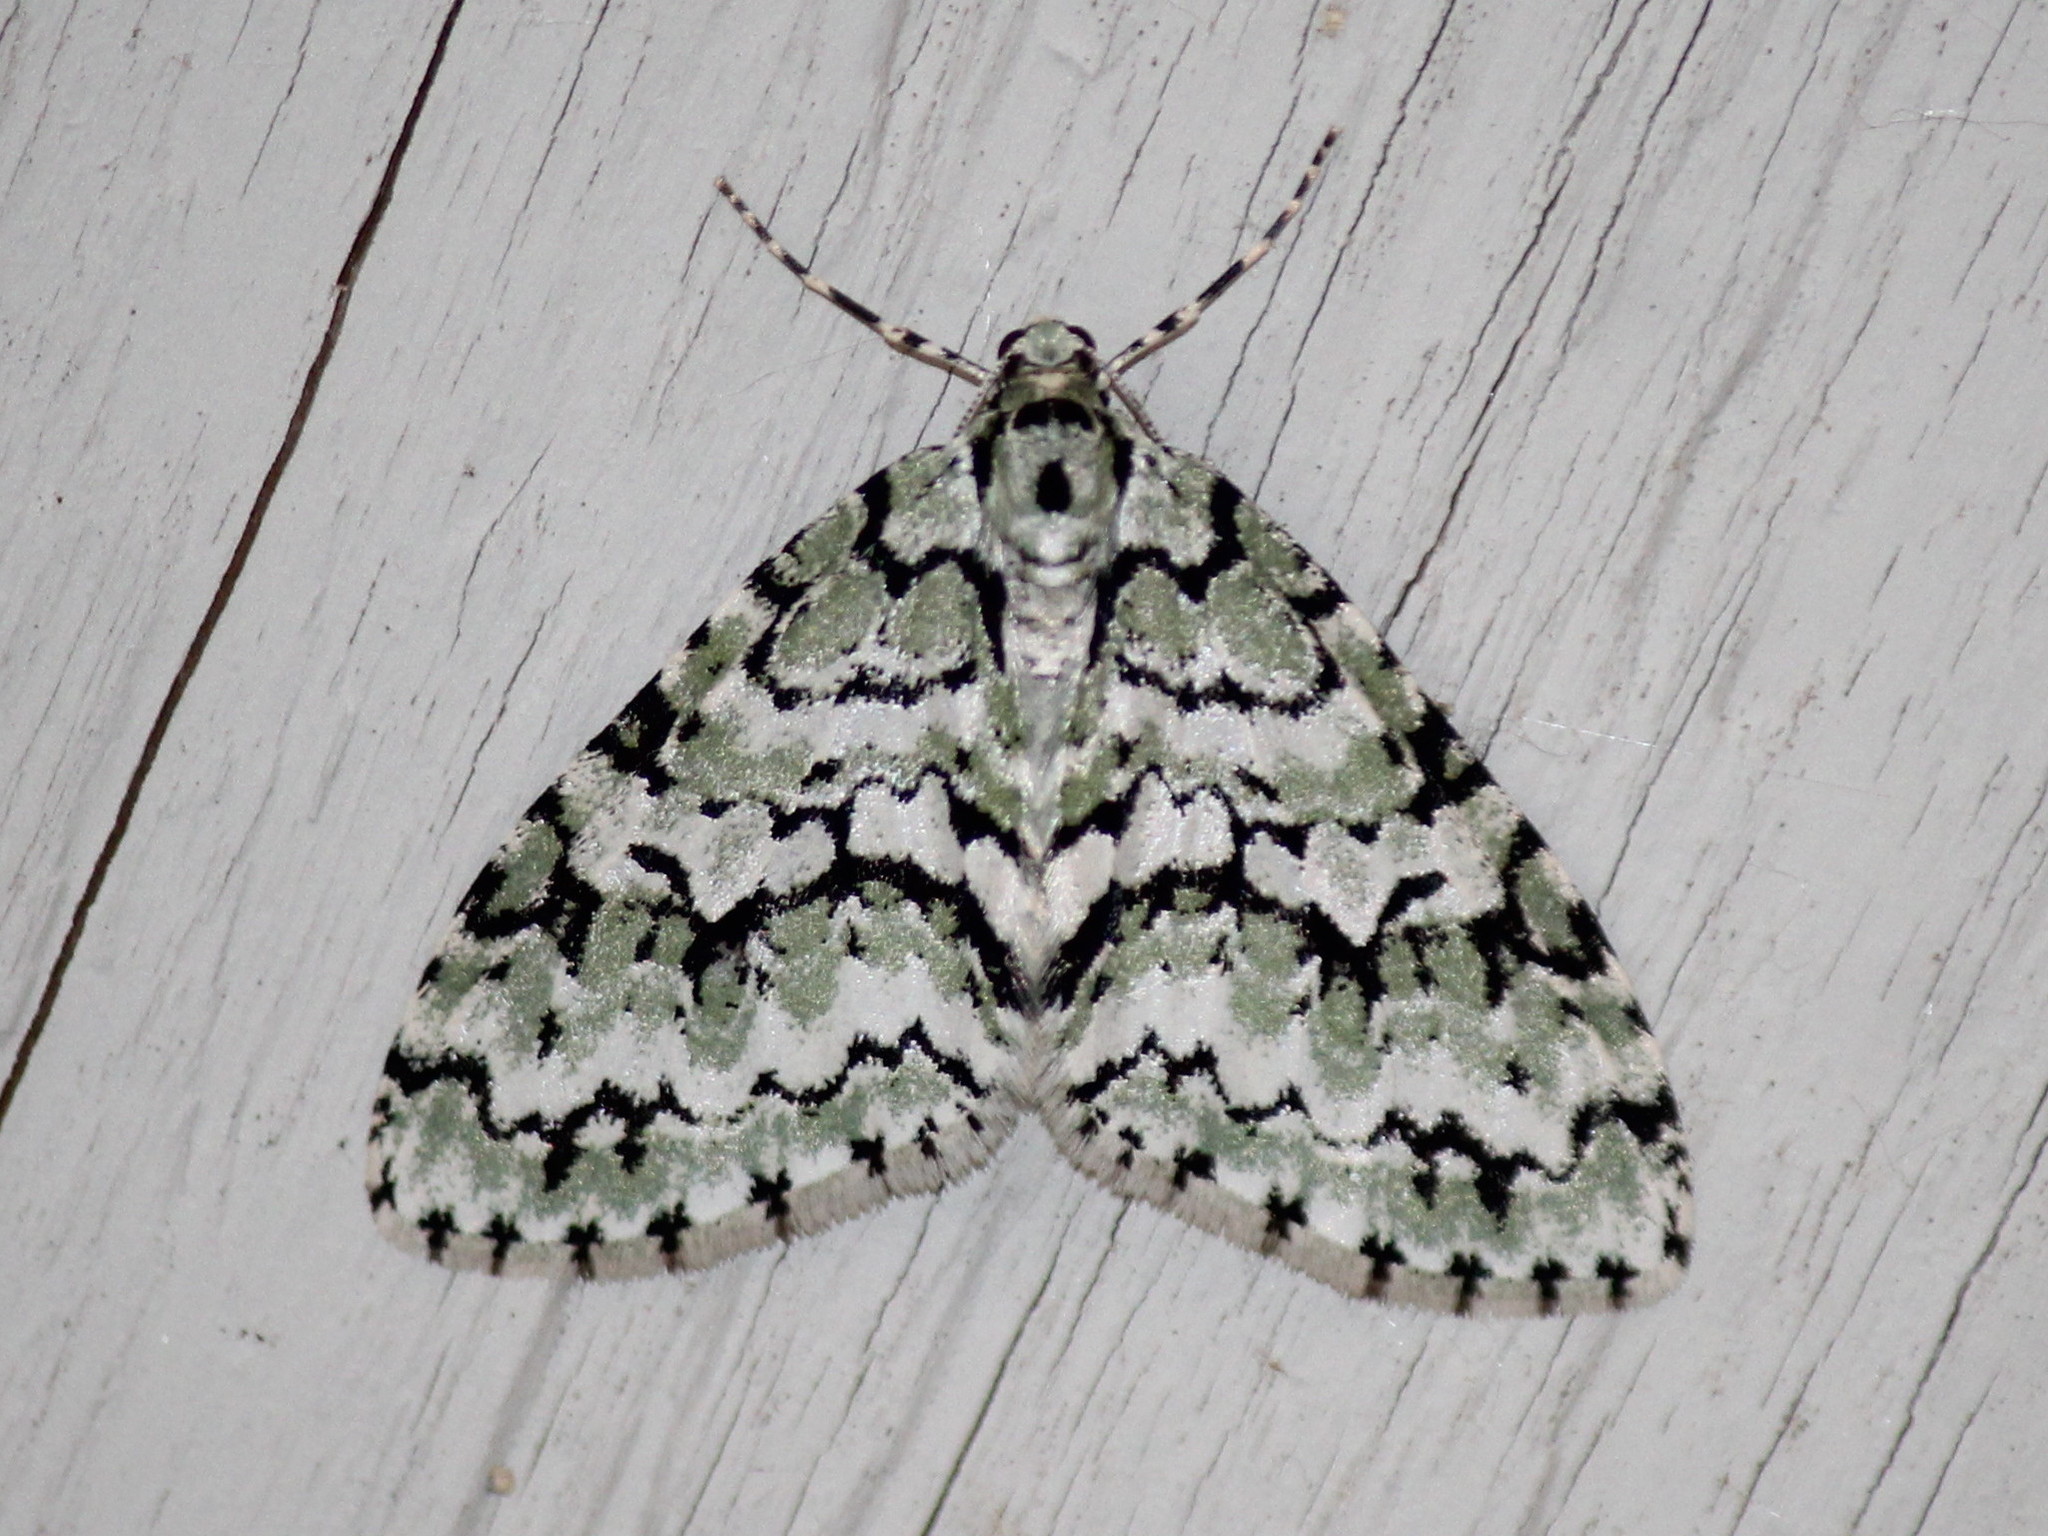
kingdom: Animalia
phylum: Arthropoda
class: Insecta
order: Lepidoptera
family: Geometridae
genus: Cladara
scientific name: Cladara atroliturata
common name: Scribbler
